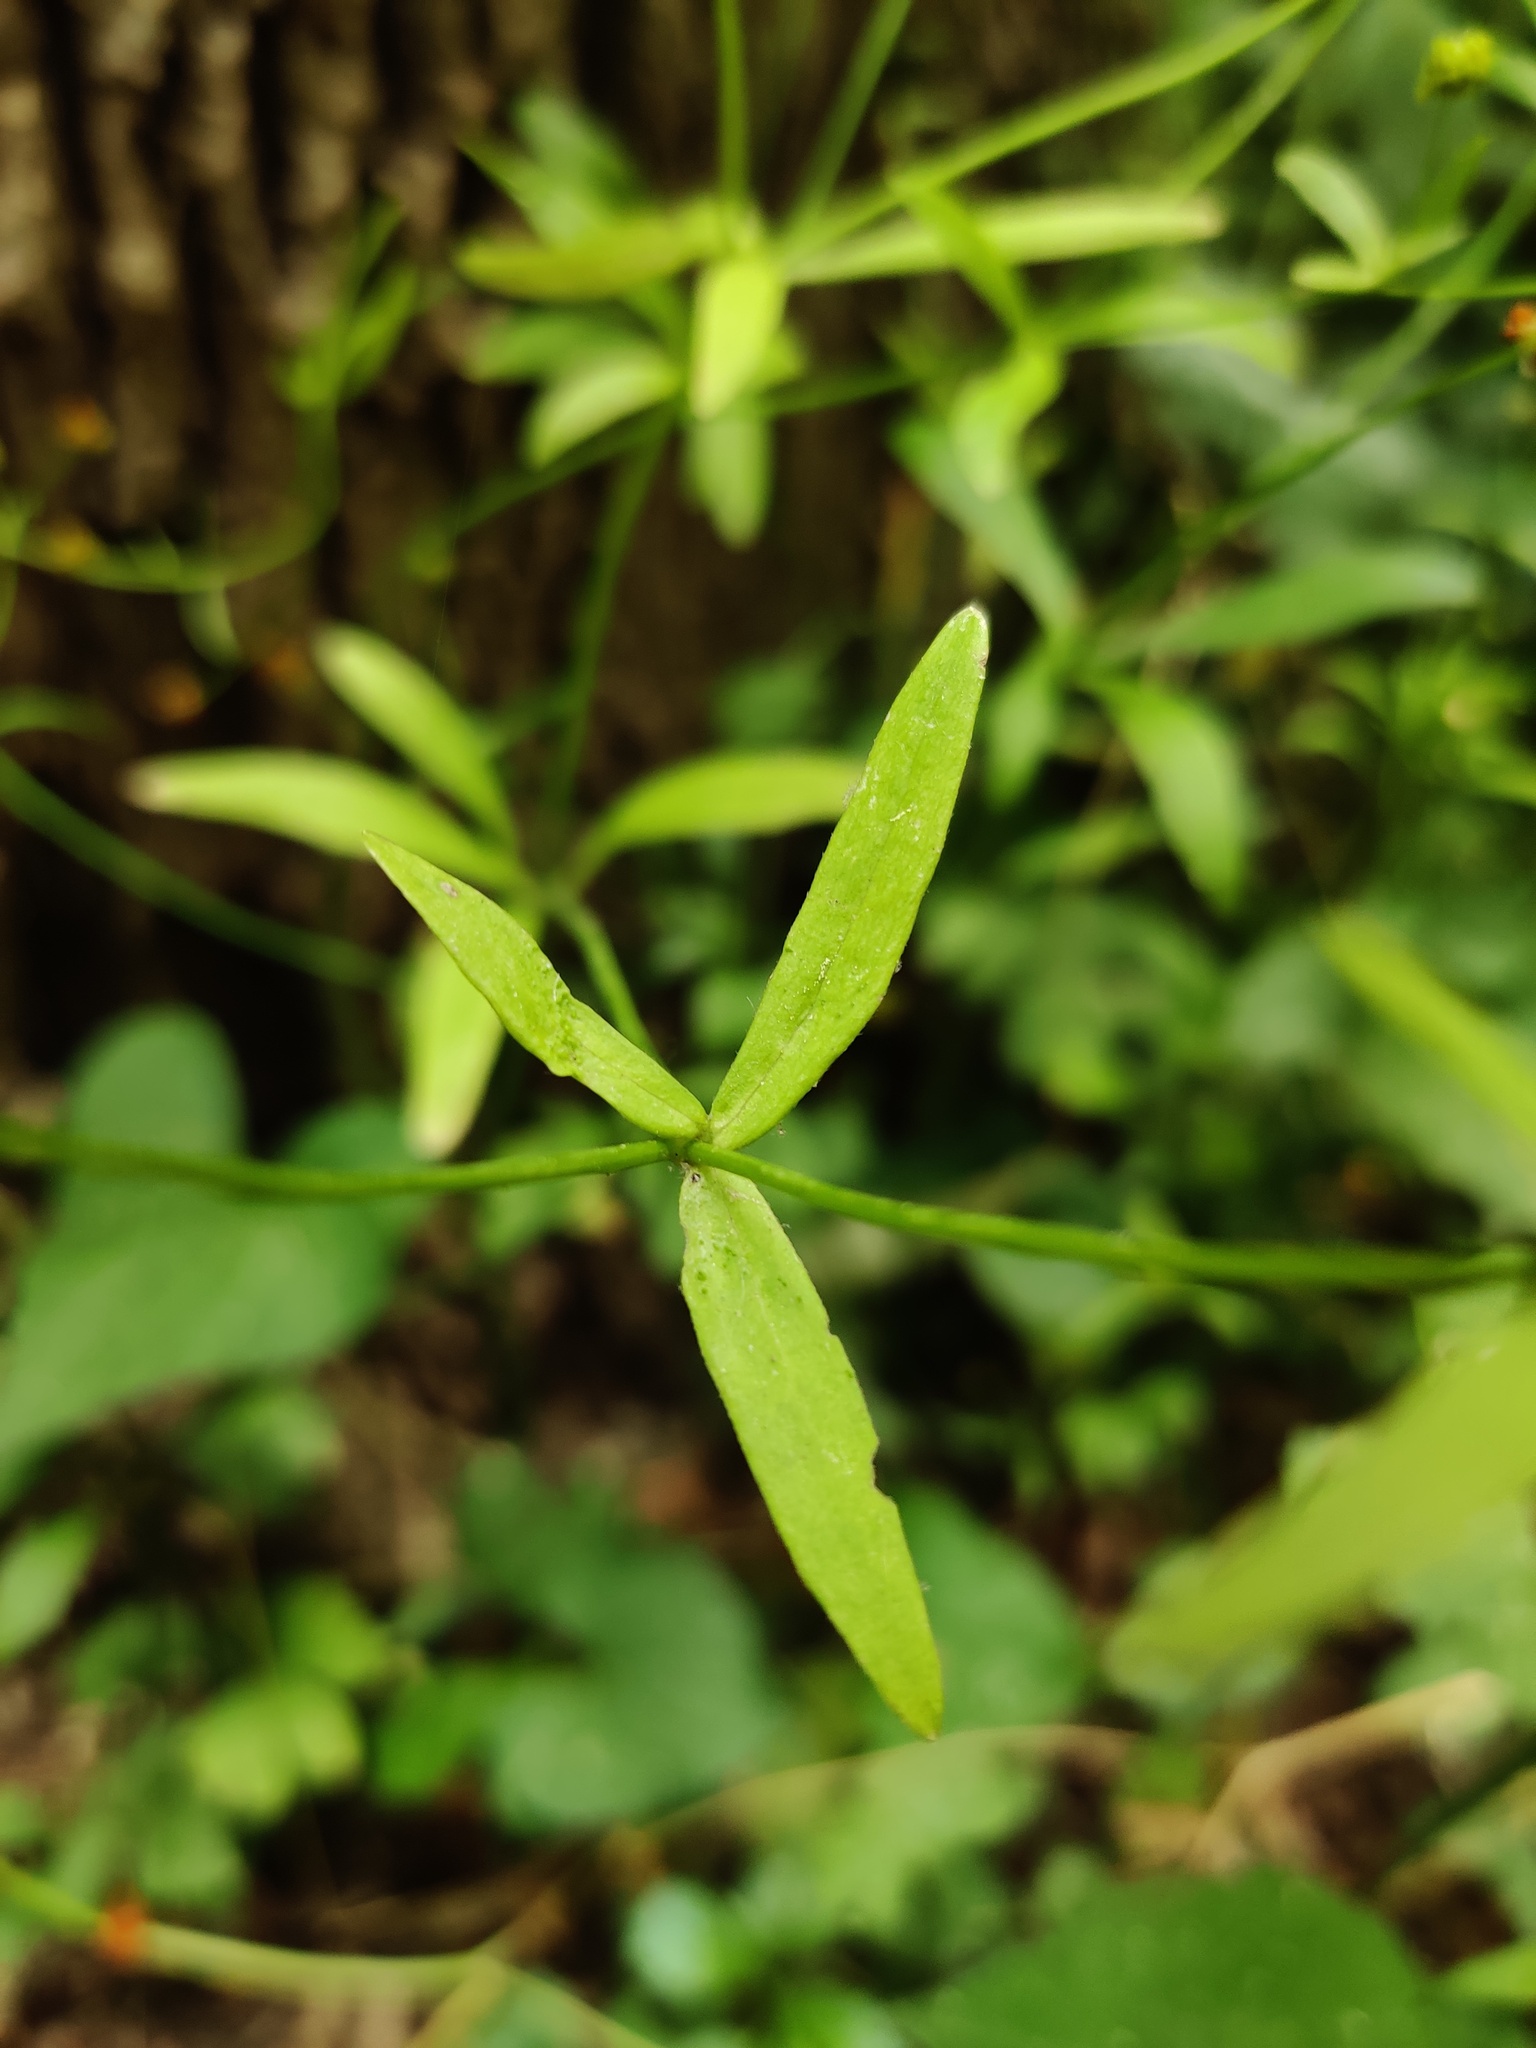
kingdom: Plantae
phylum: Tracheophyta
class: Magnoliopsida
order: Ranunculales
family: Ranunculaceae
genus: Ranunculus
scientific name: Ranunculus abortivus
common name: Early wood buttercup
